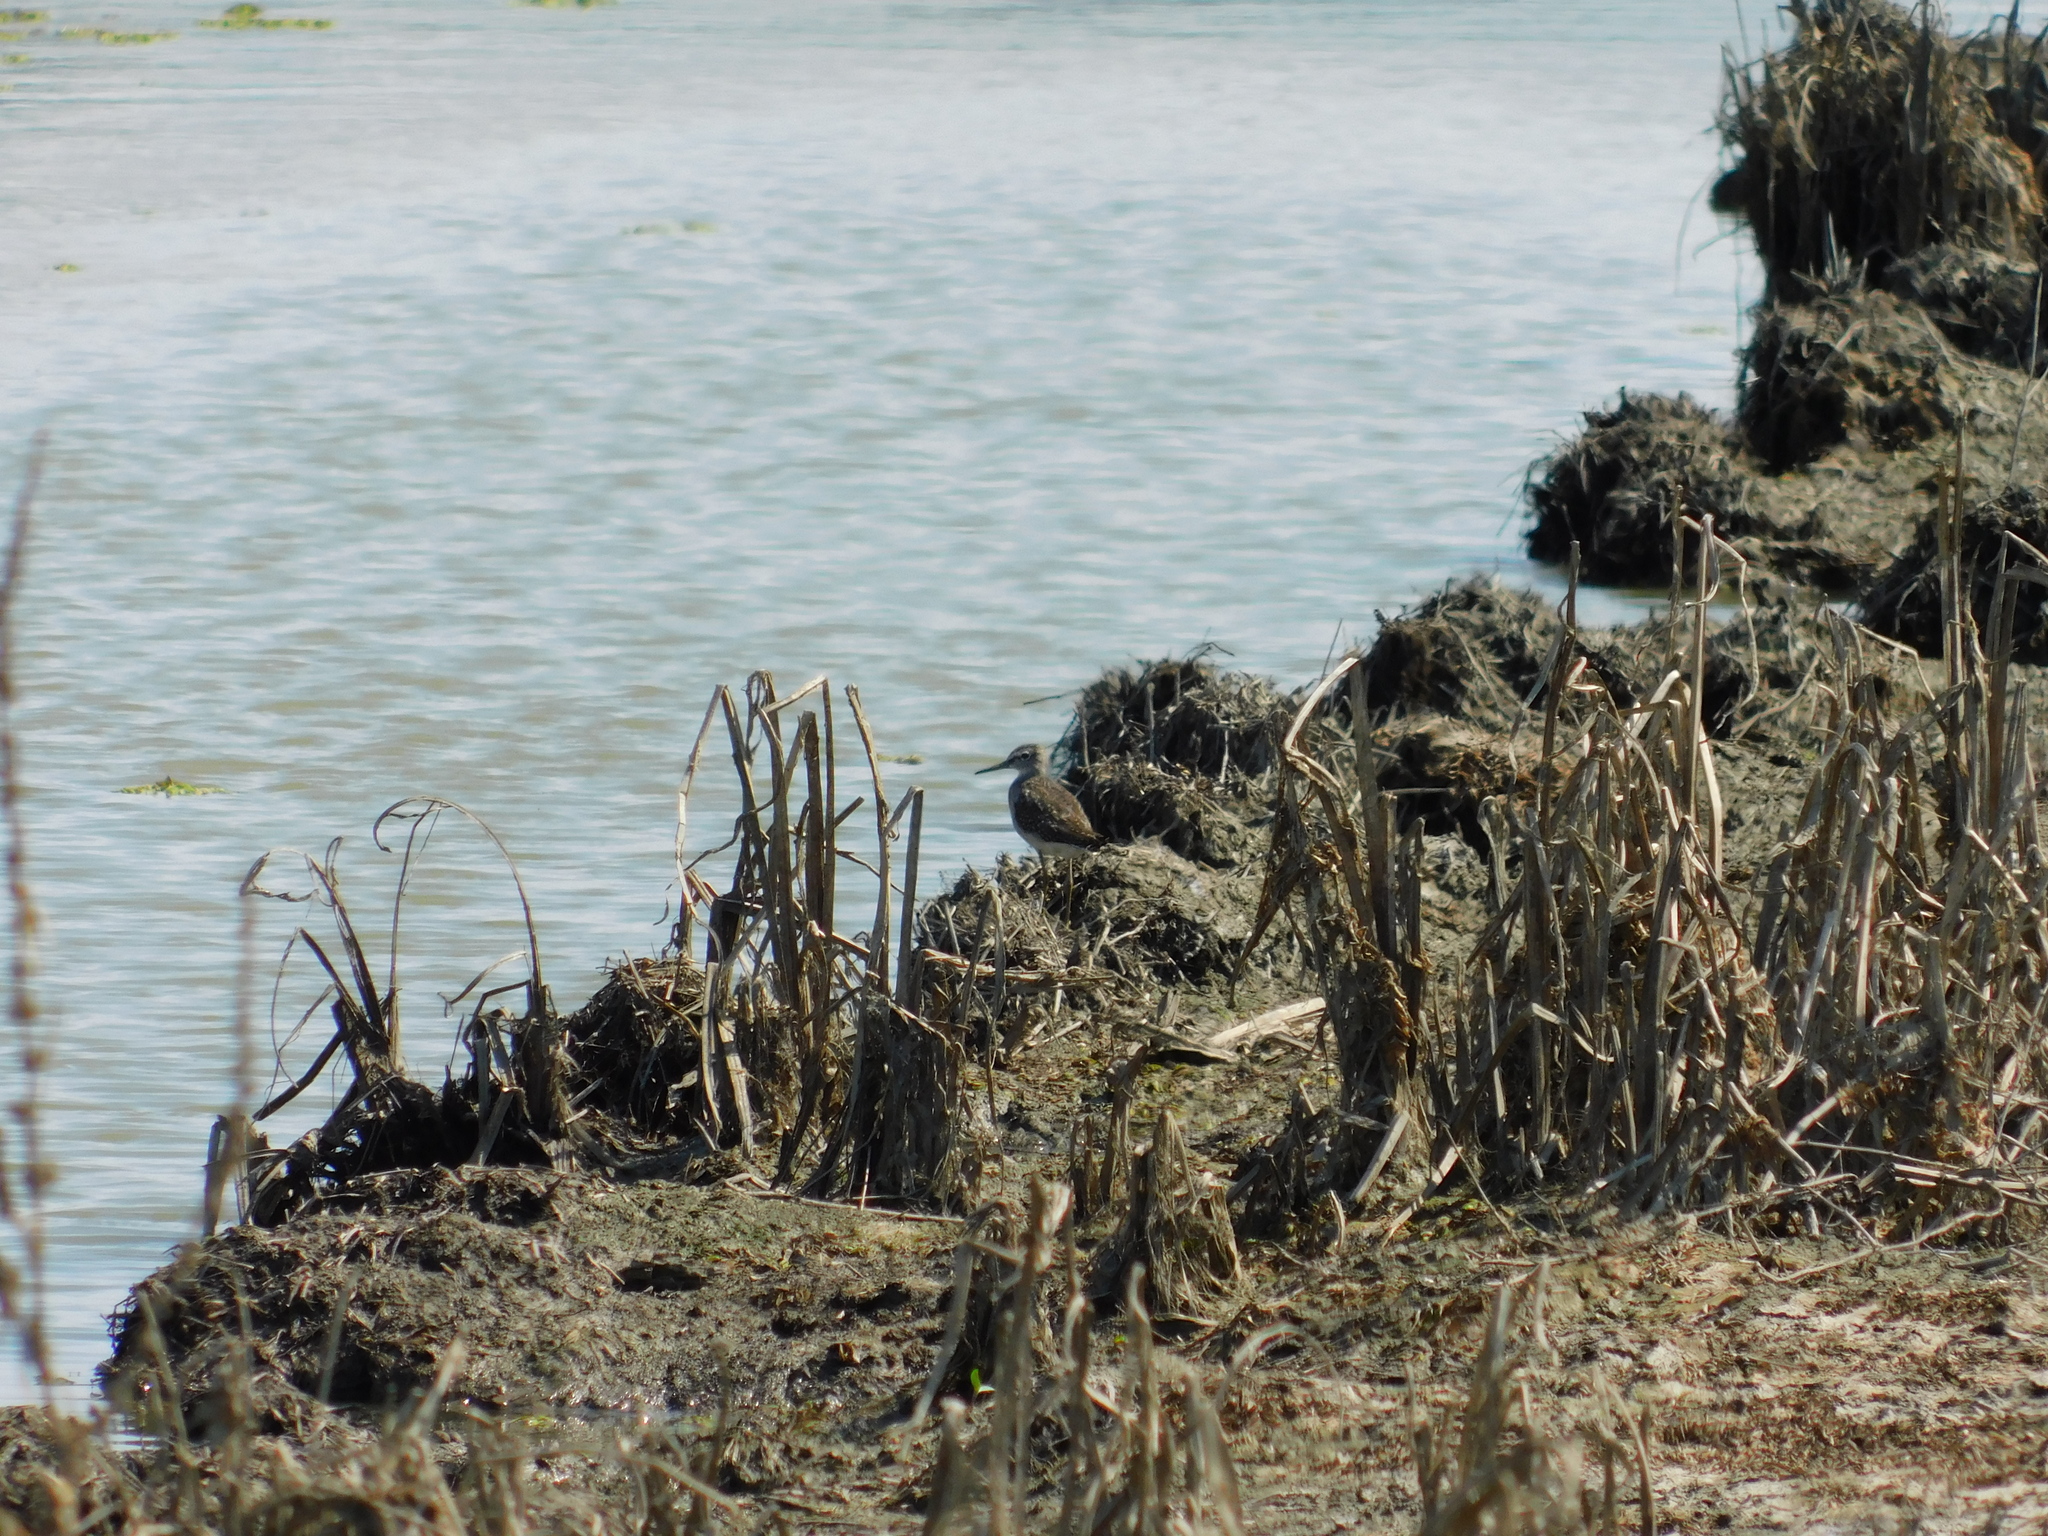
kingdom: Animalia
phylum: Chordata
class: Aves
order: Charadriiformes
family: Scolopacidae
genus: Tringa
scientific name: Tringa glareola
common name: Wood sandpiper
